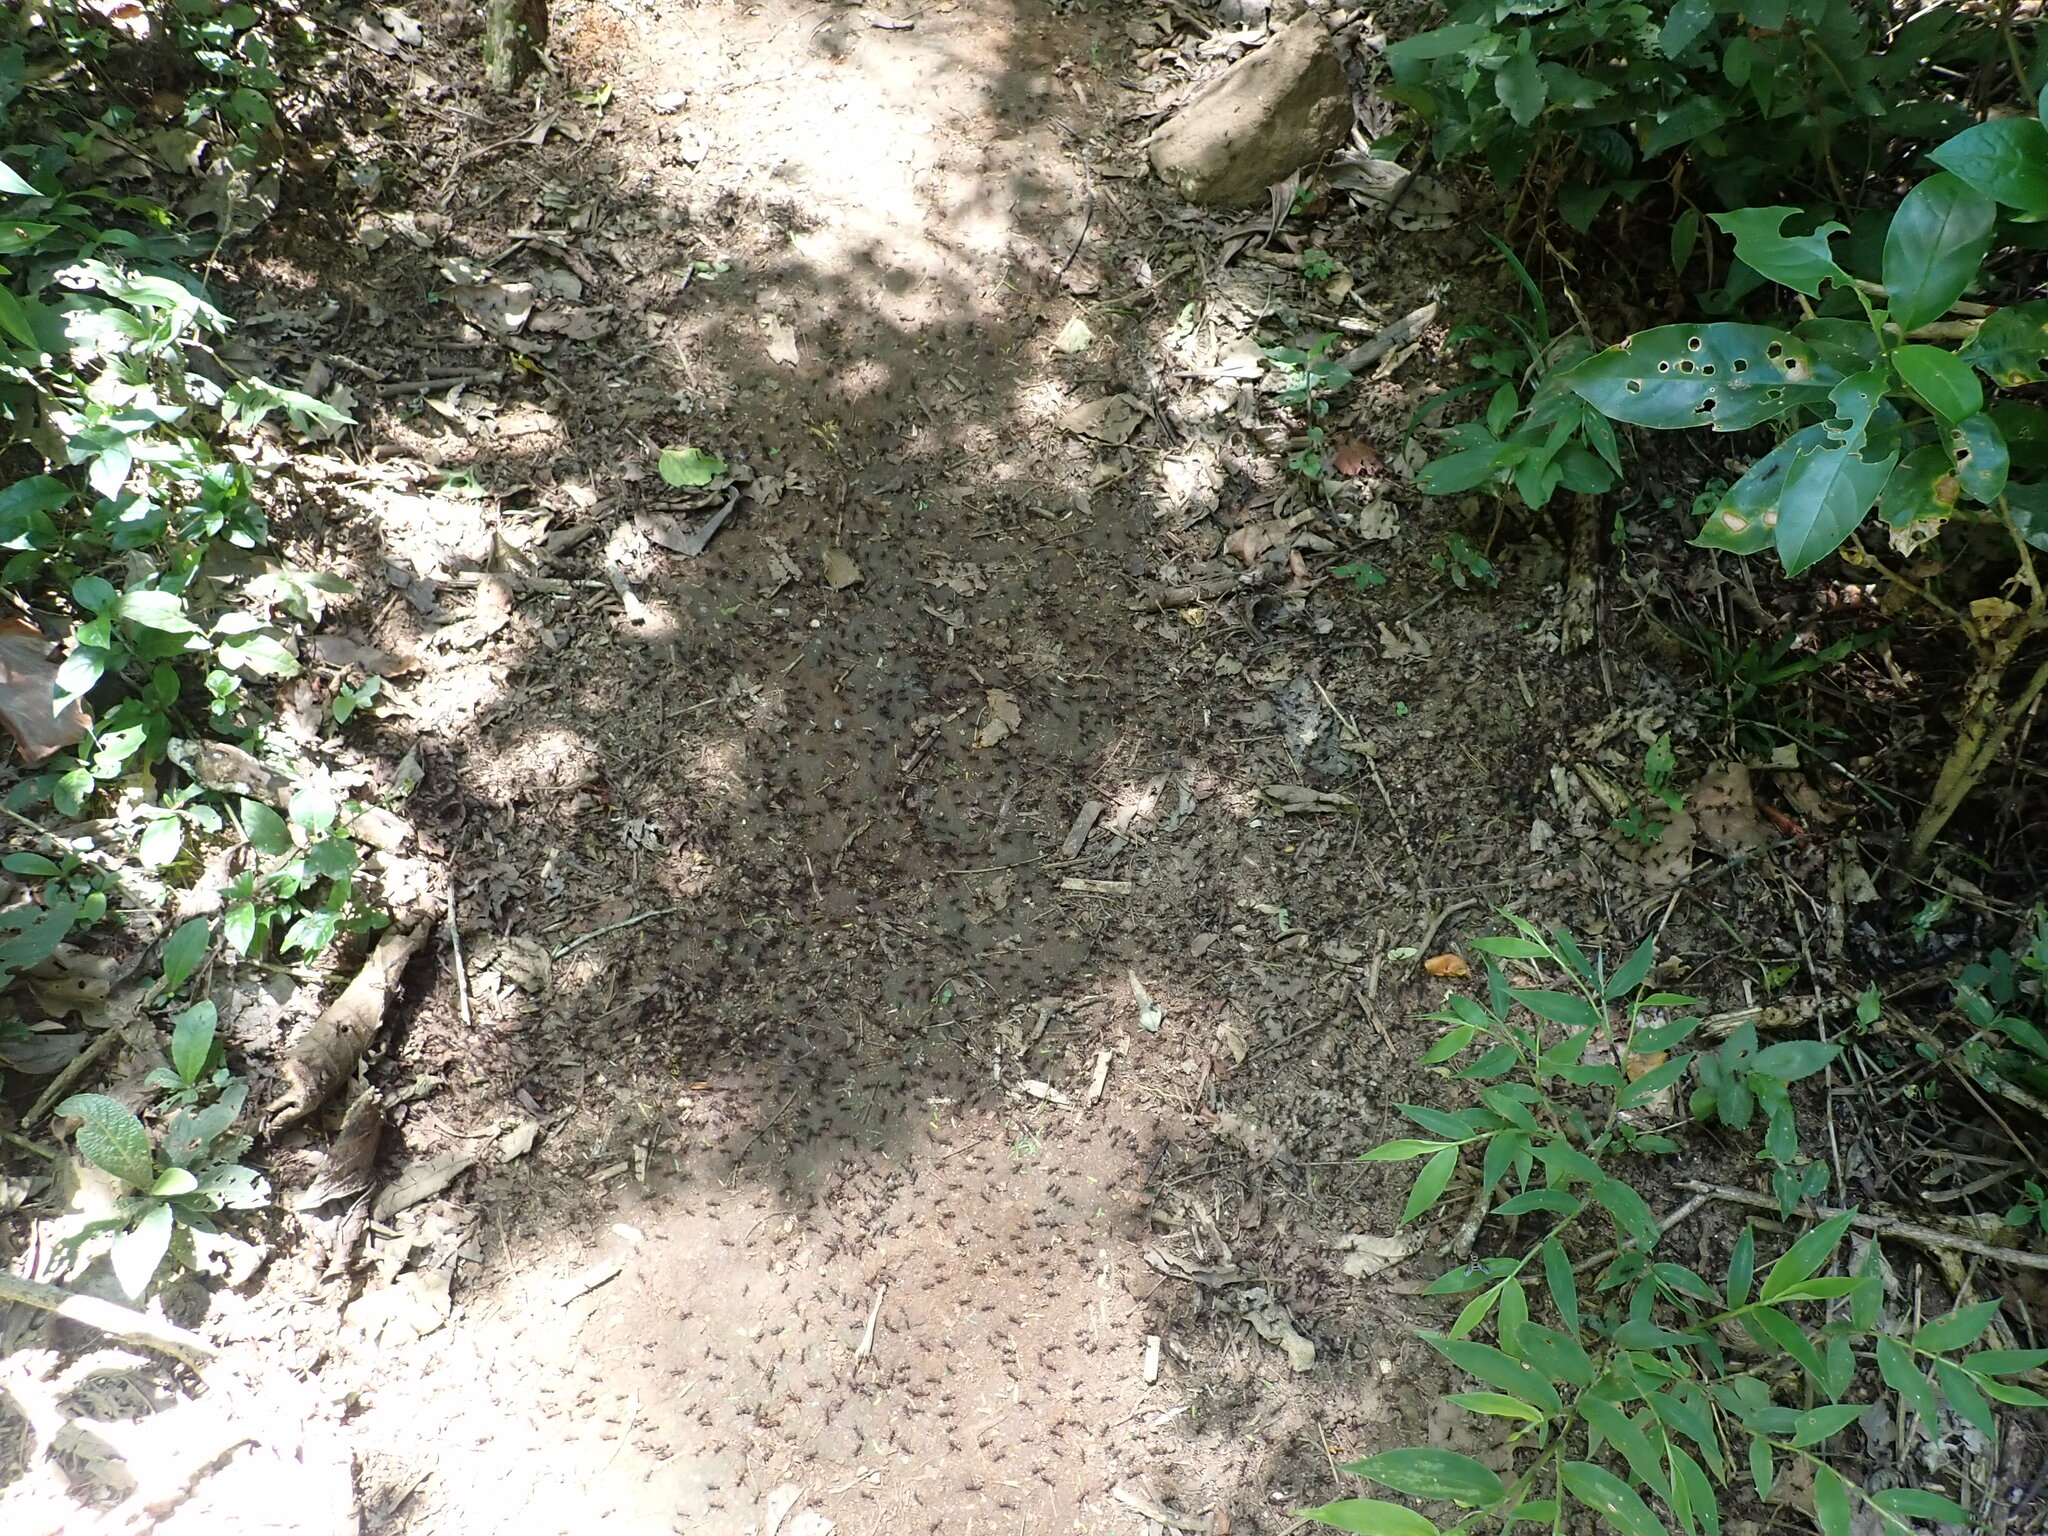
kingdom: Animalia
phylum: Arthropoda
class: Insecta
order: Hymenoptera
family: Formicidae
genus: Eciton
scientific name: Eciton burchellii
